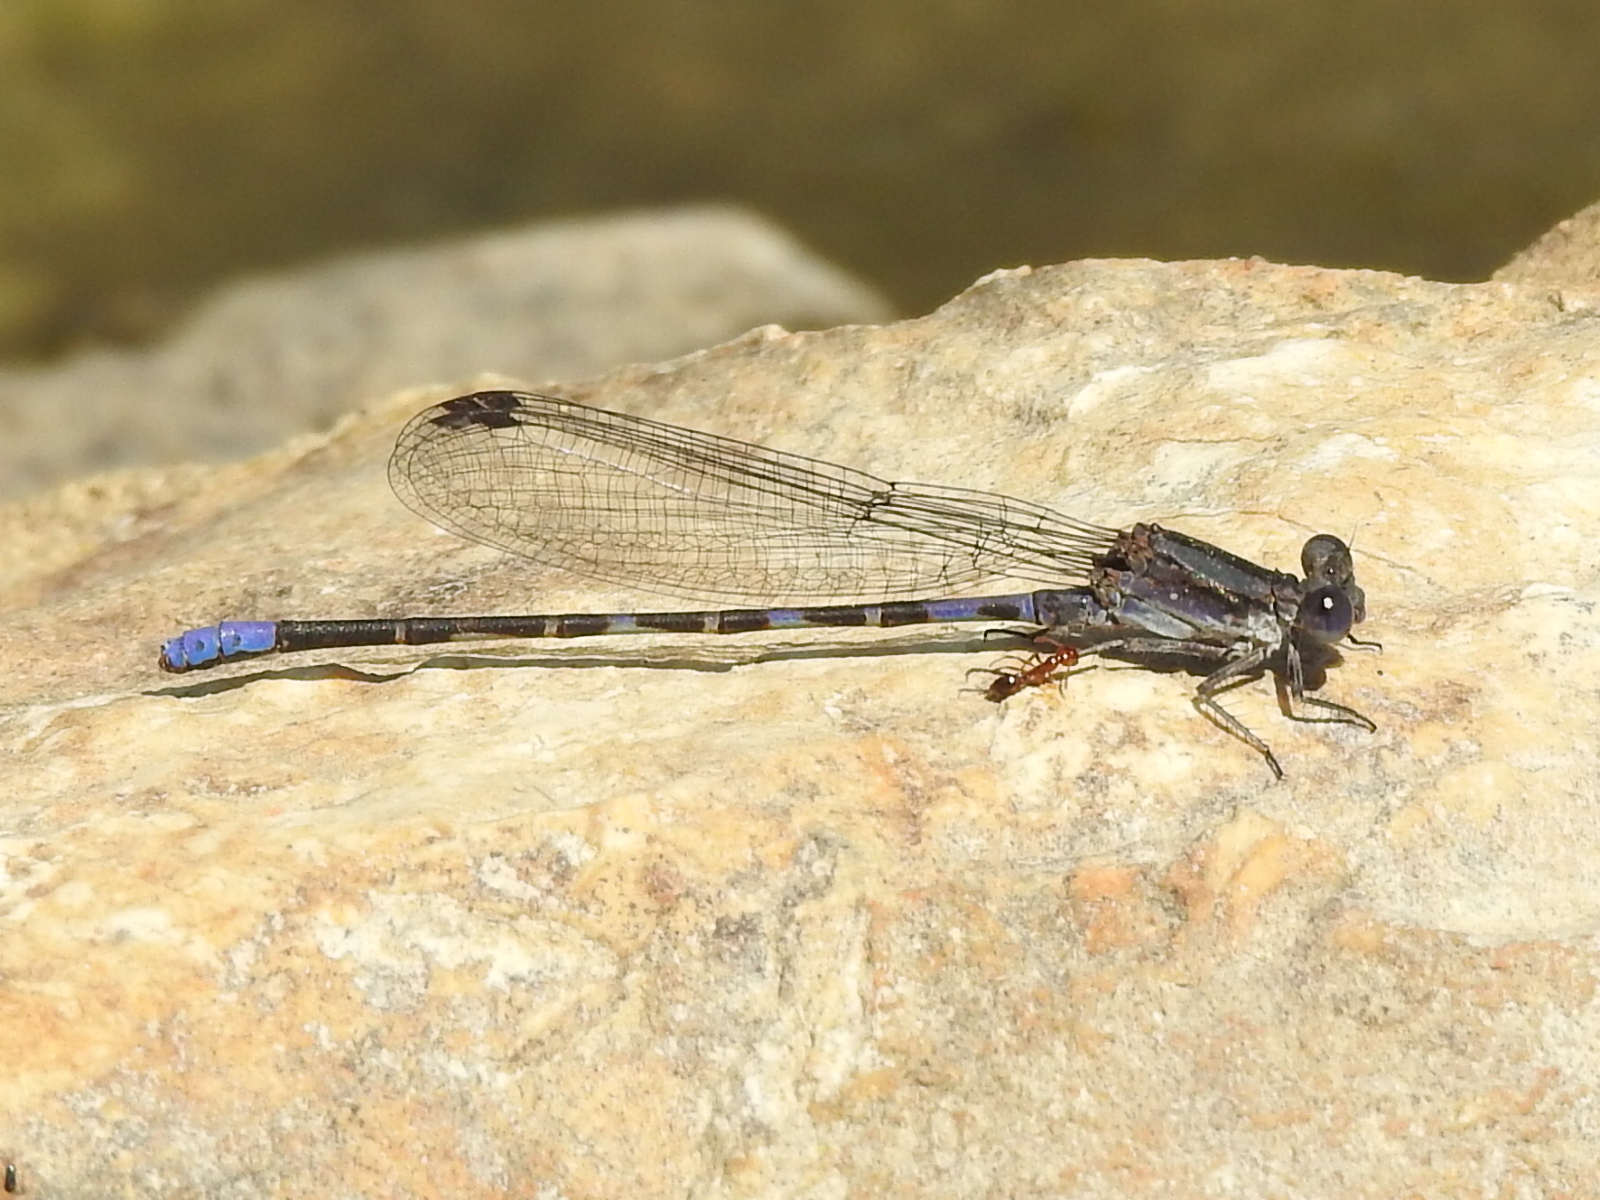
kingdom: Animalia
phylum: Arthropoda
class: Insecta
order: Odonata
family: Coenagrionidae
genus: Argia
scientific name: Argia immunda
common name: Kiowa dancer
